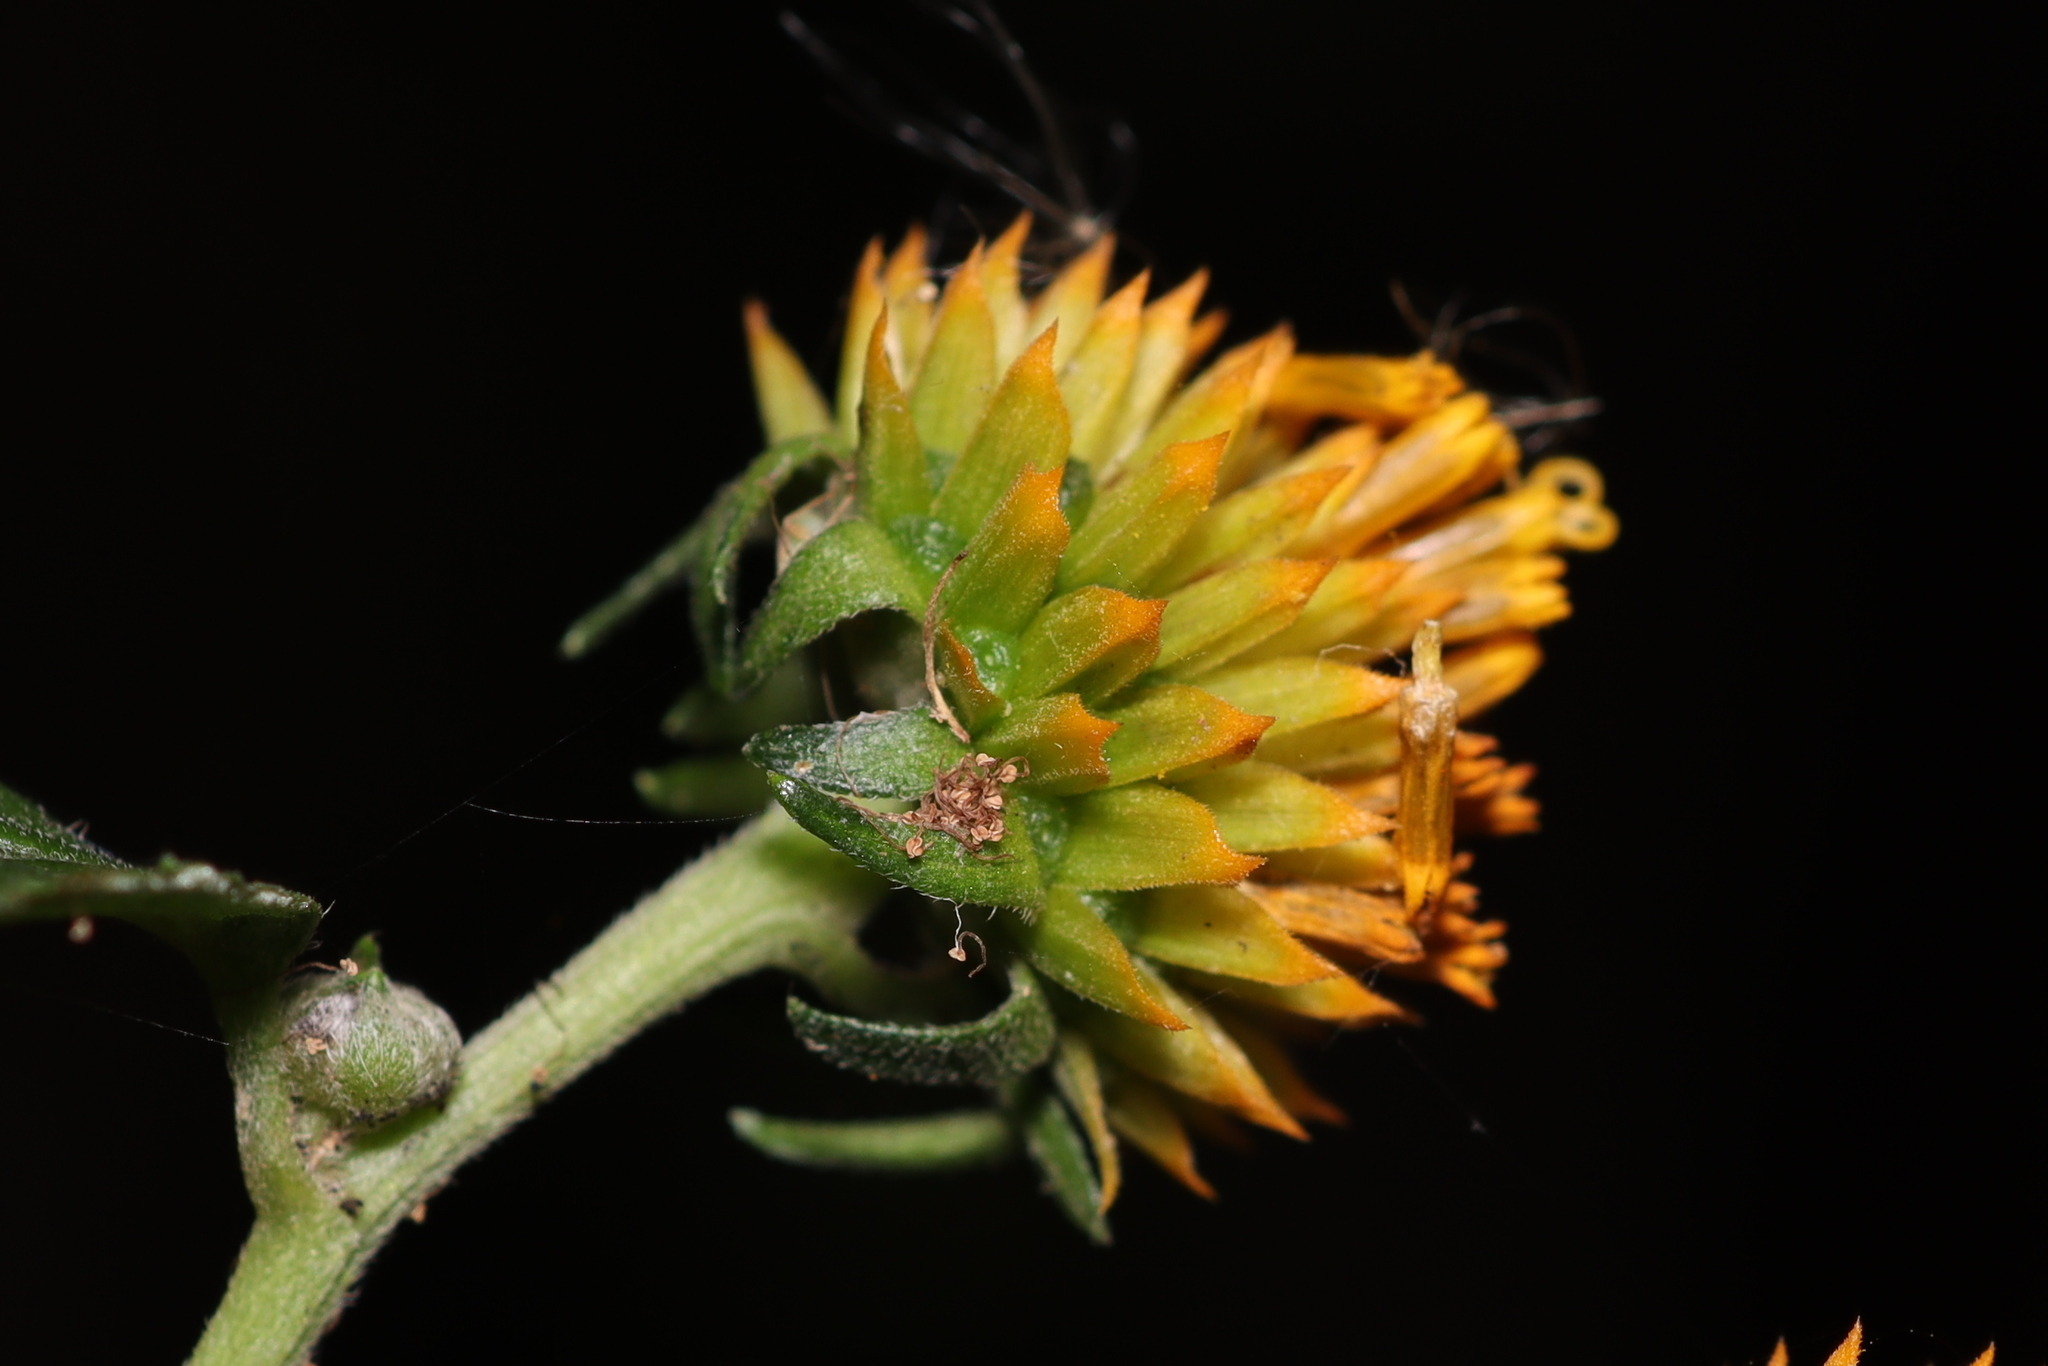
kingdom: Plantae
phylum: Tracheophyta
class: Magnoliopsida
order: Asterales
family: Asteraceae
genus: Tilesia
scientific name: Tilesia baccata
